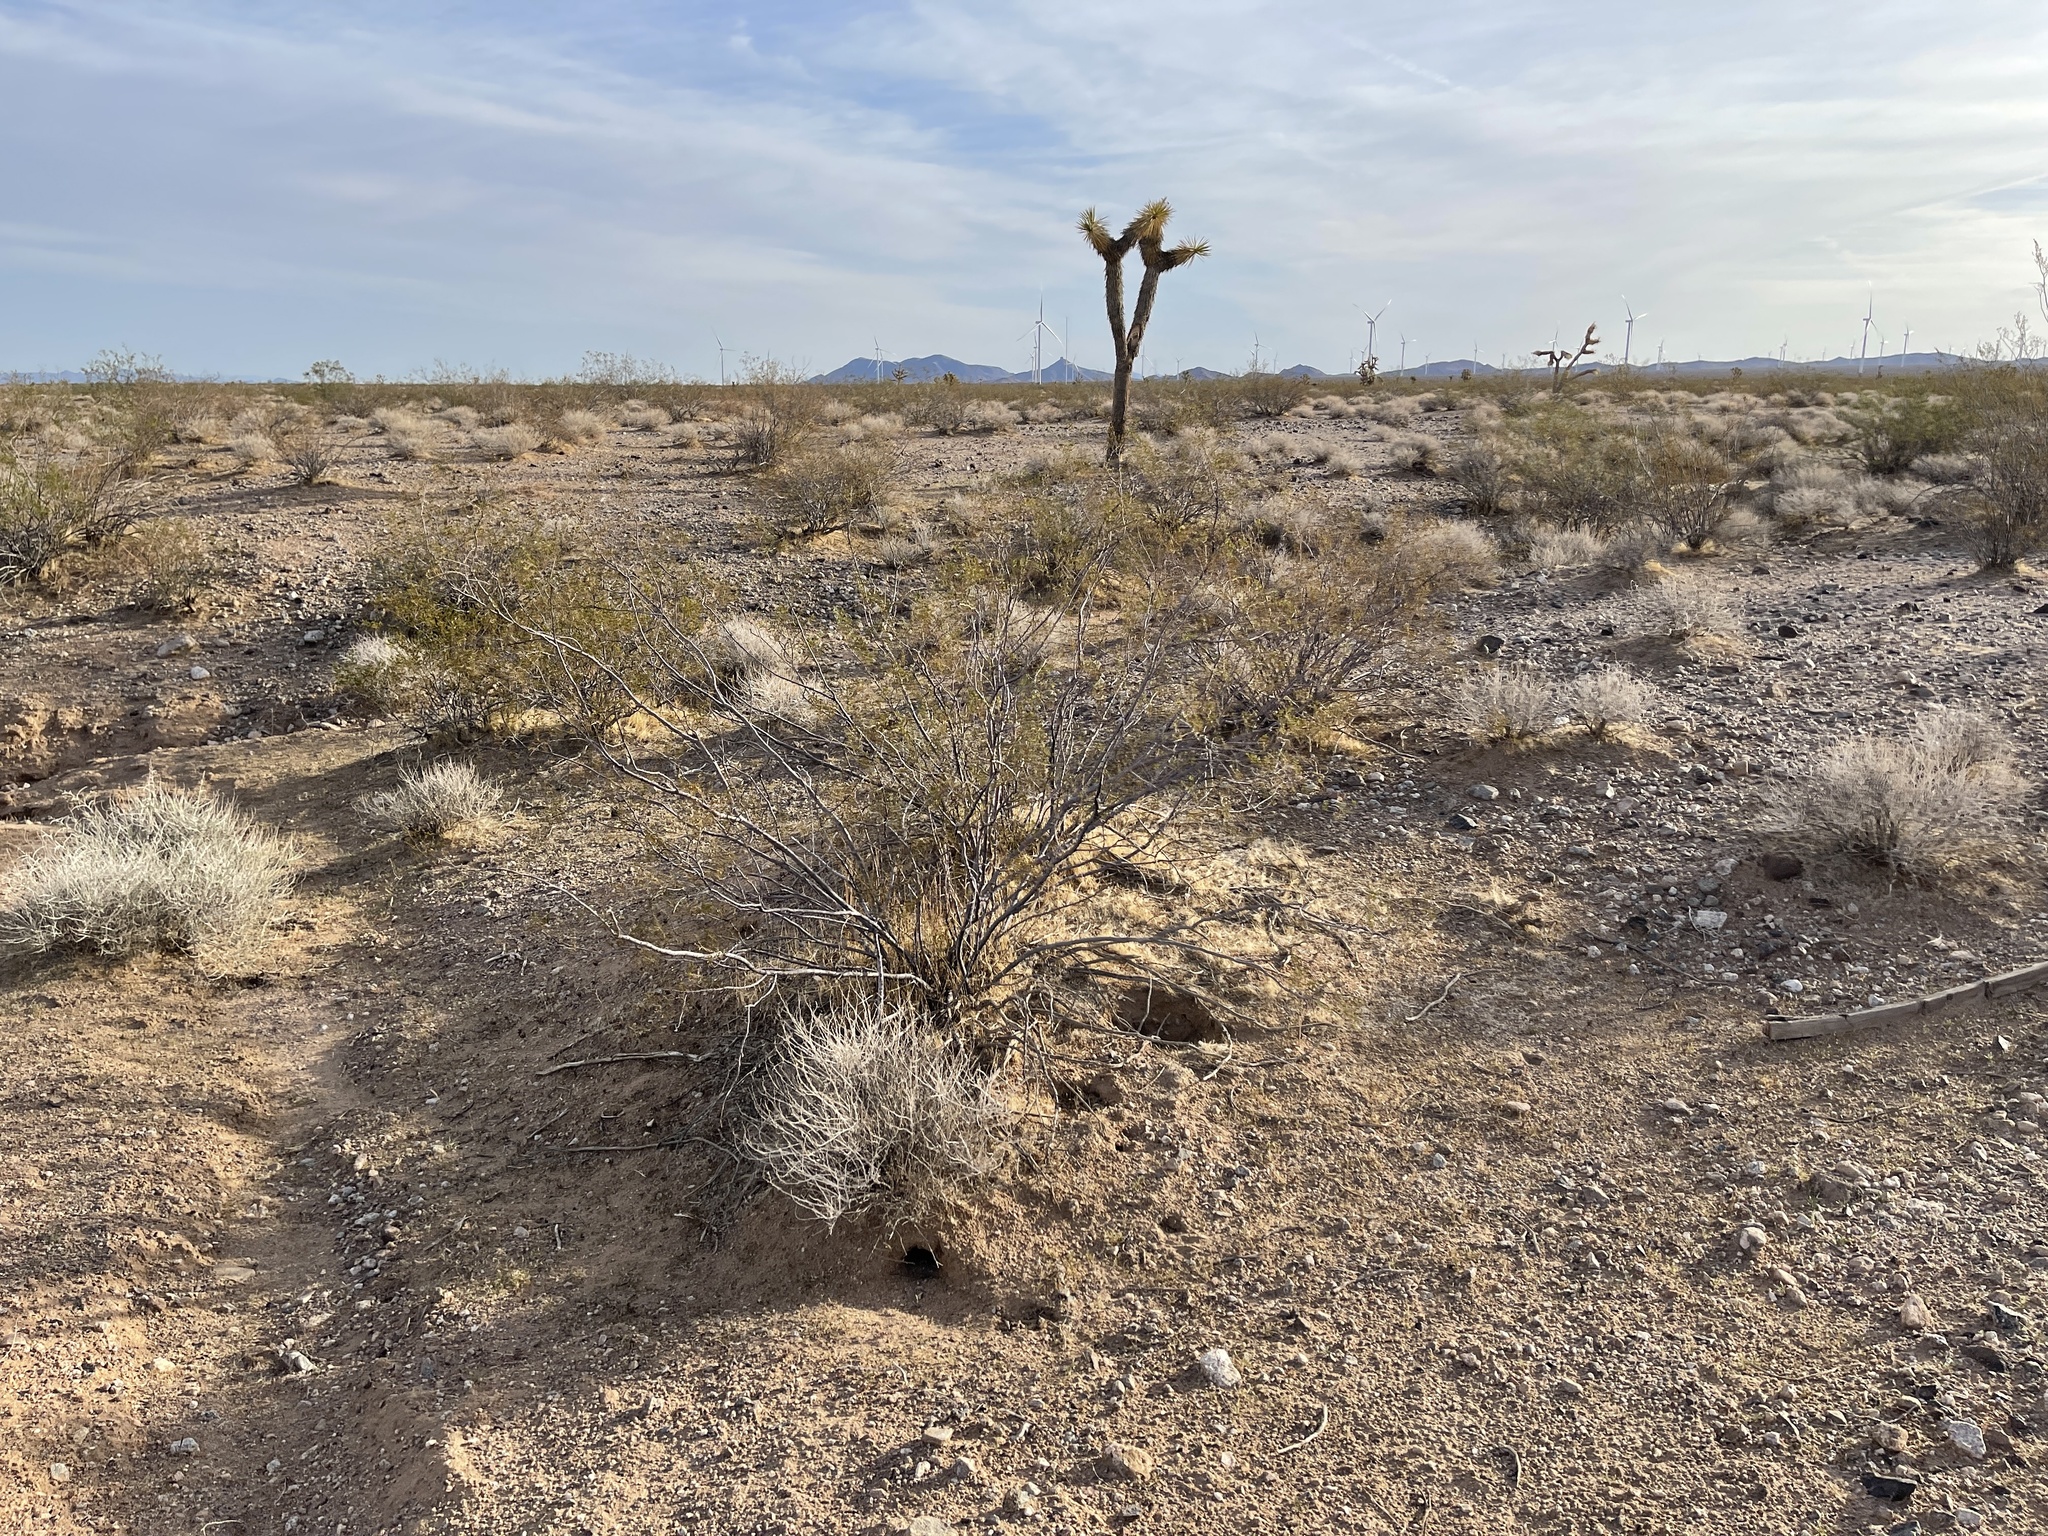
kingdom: Plantae
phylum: Tracheophyta
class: Magnoliopsida
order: Zygophyllales
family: Zygophyllaceae
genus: Larrea
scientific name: Larrea tridentata
